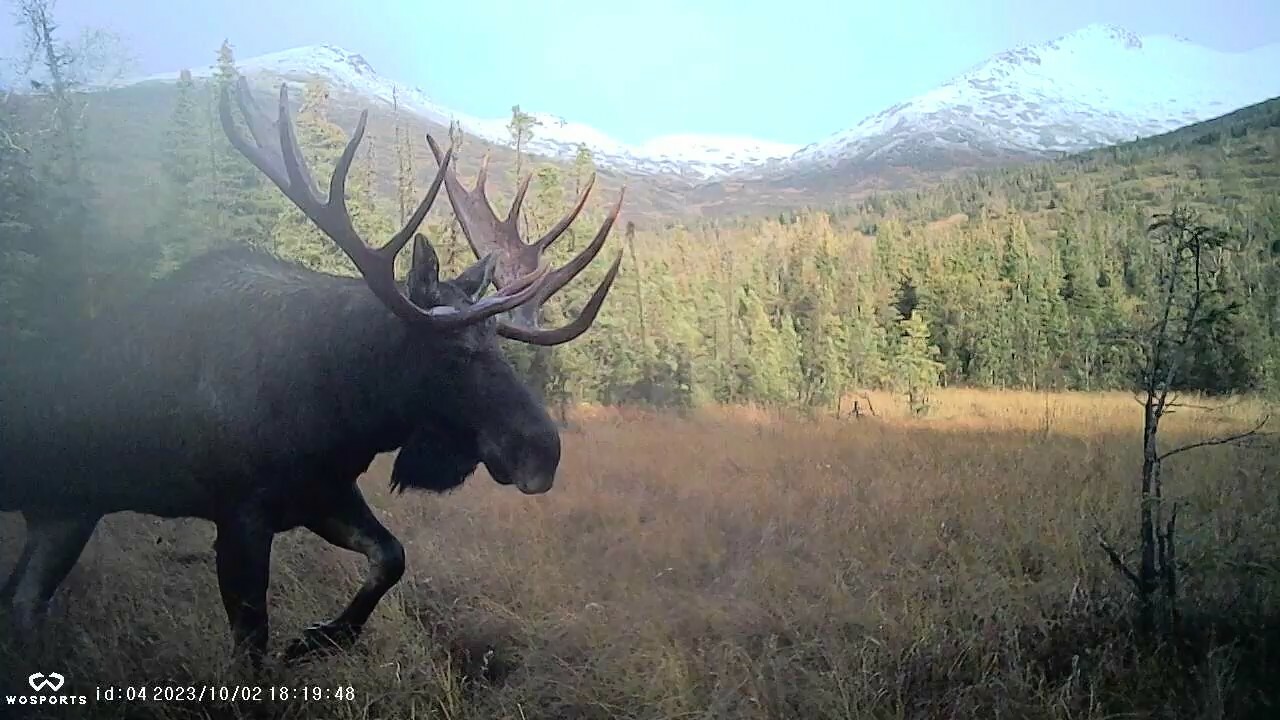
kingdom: Animalia
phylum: Chordata
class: Mammalia
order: Artiodactyla
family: Cervidae
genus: Alces
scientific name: Alces alces
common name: Moose
